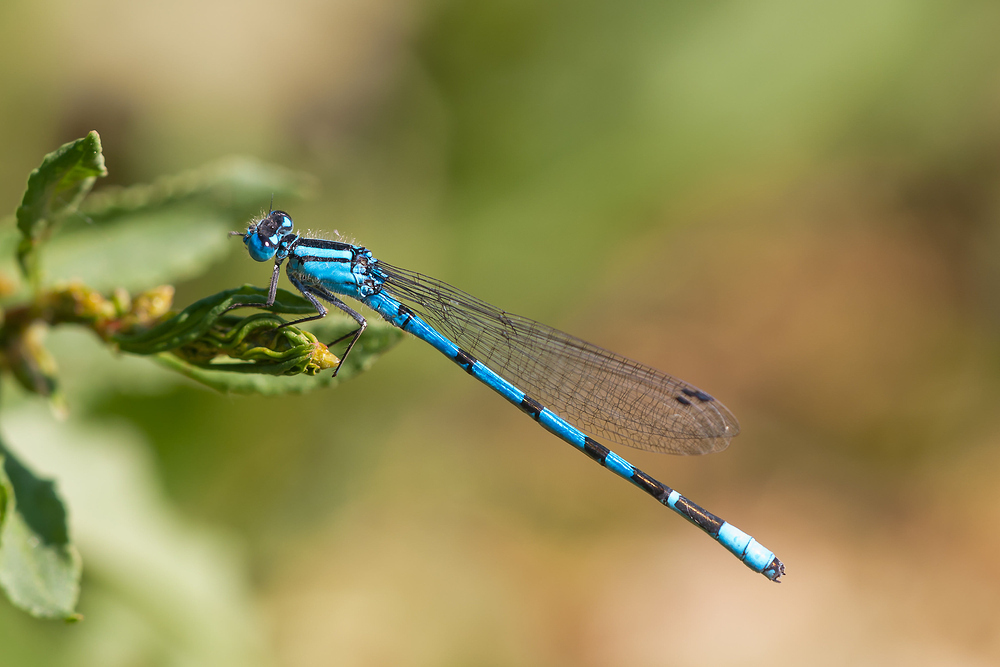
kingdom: Animalia
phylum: Arthropoda
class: Insecta
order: Odonata
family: Coenagrionidae
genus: Enallagma
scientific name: Enallagma cyathigerum
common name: Common blue damselfly
